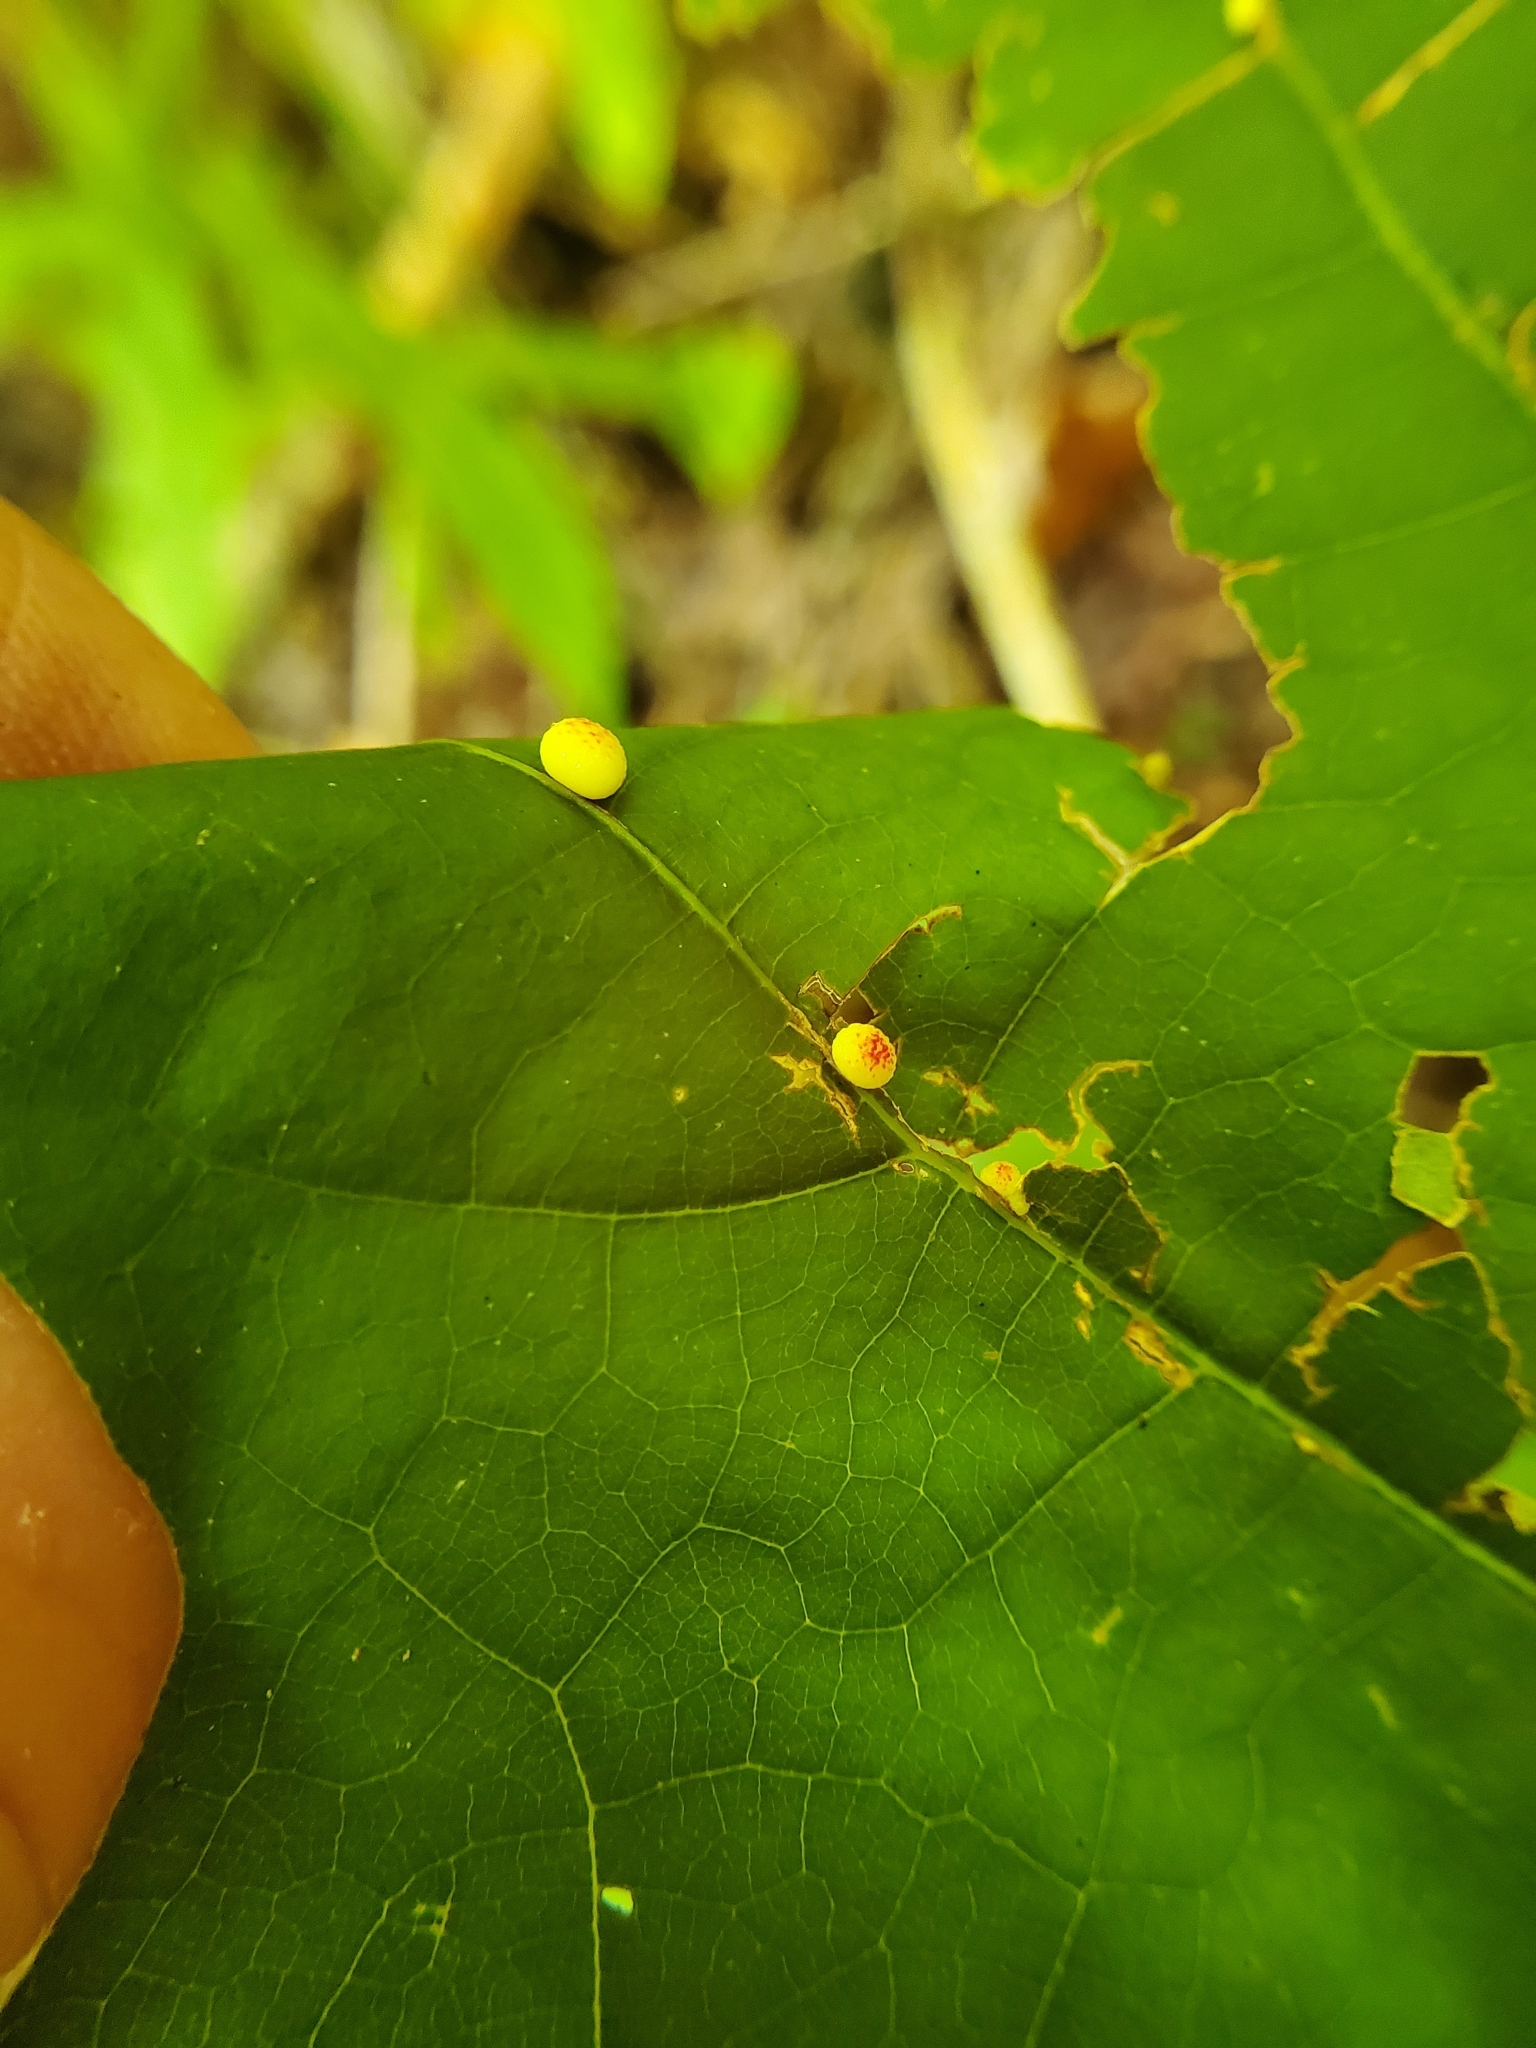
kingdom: Animalia
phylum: Arthropoda
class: Insecta
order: Hymenoptera
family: Cynipidae
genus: Acraspis
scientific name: Acraspis quercushirta
